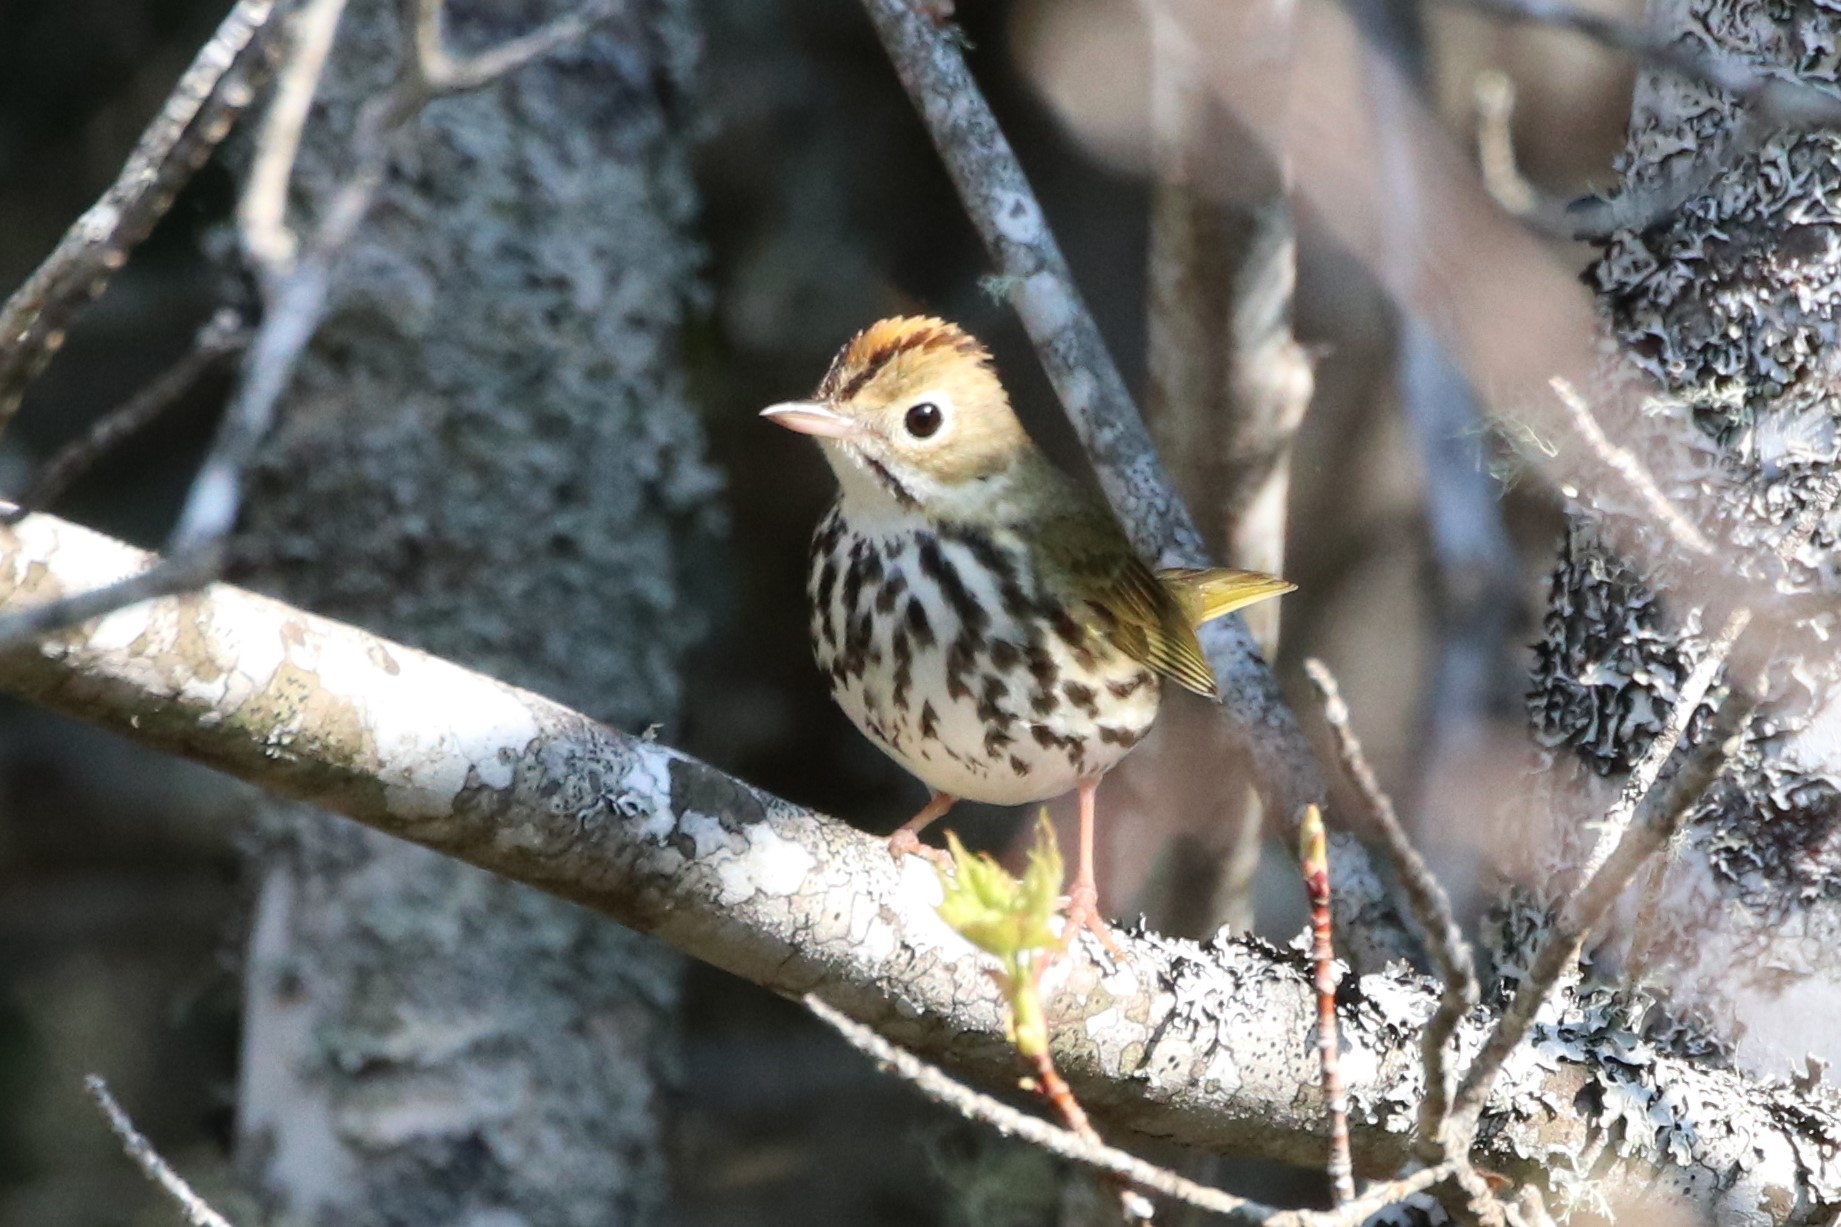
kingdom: Animalia
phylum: Chordata
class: Aves
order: Passeriformes
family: Parulidae
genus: Seiurus
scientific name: Seiurus aurocapilla
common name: Ovenbird
